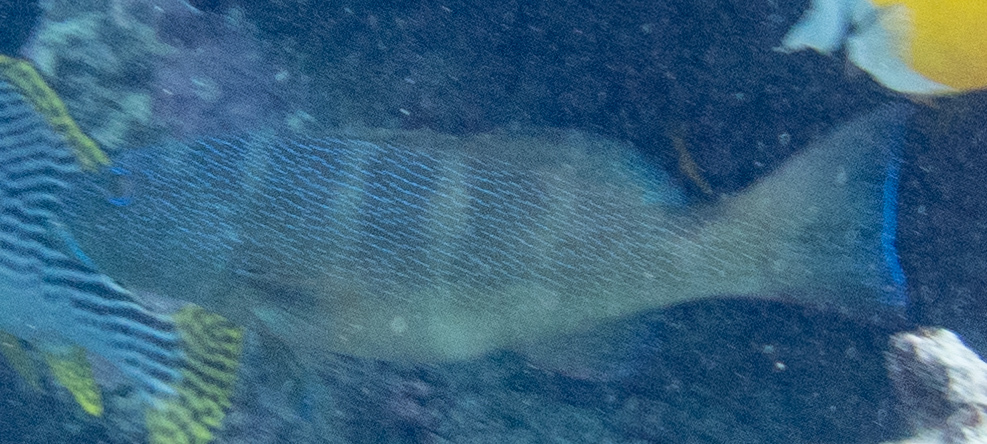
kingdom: Animalia
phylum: Chordata
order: Perciformes
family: Serranidae
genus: Plectropomus
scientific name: Plectropomus leopardus
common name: Coral trout
